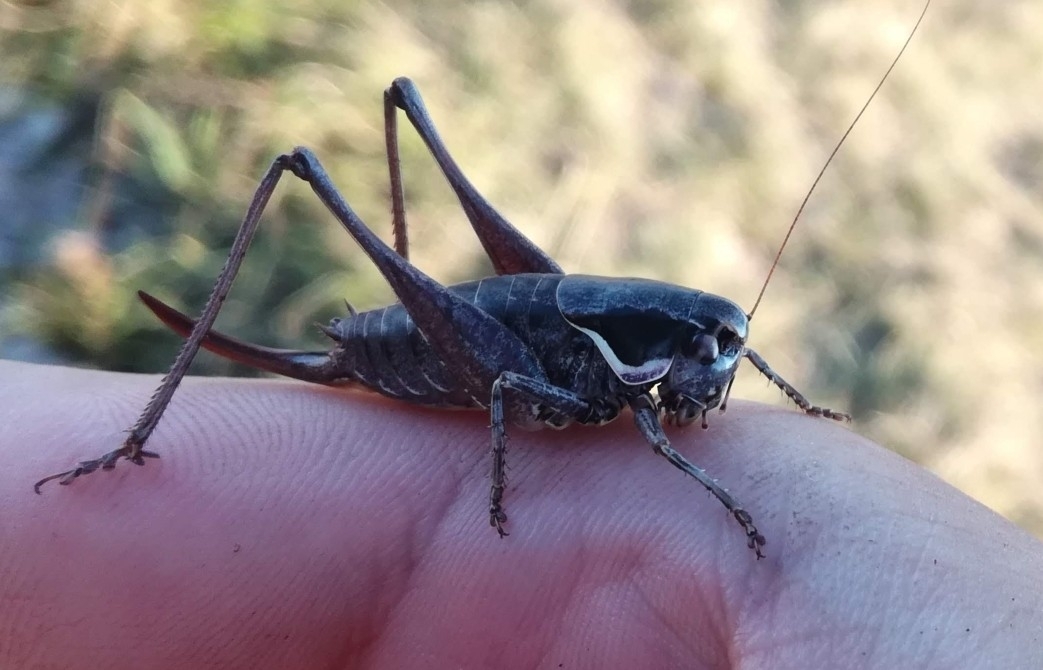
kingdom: Animalia
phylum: Arthropoda
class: Insecta
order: Orthoptera
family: Tettigoniidae
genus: Pholidoptera
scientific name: Pholidoptera fallax
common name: Fischer's bush-cricket
